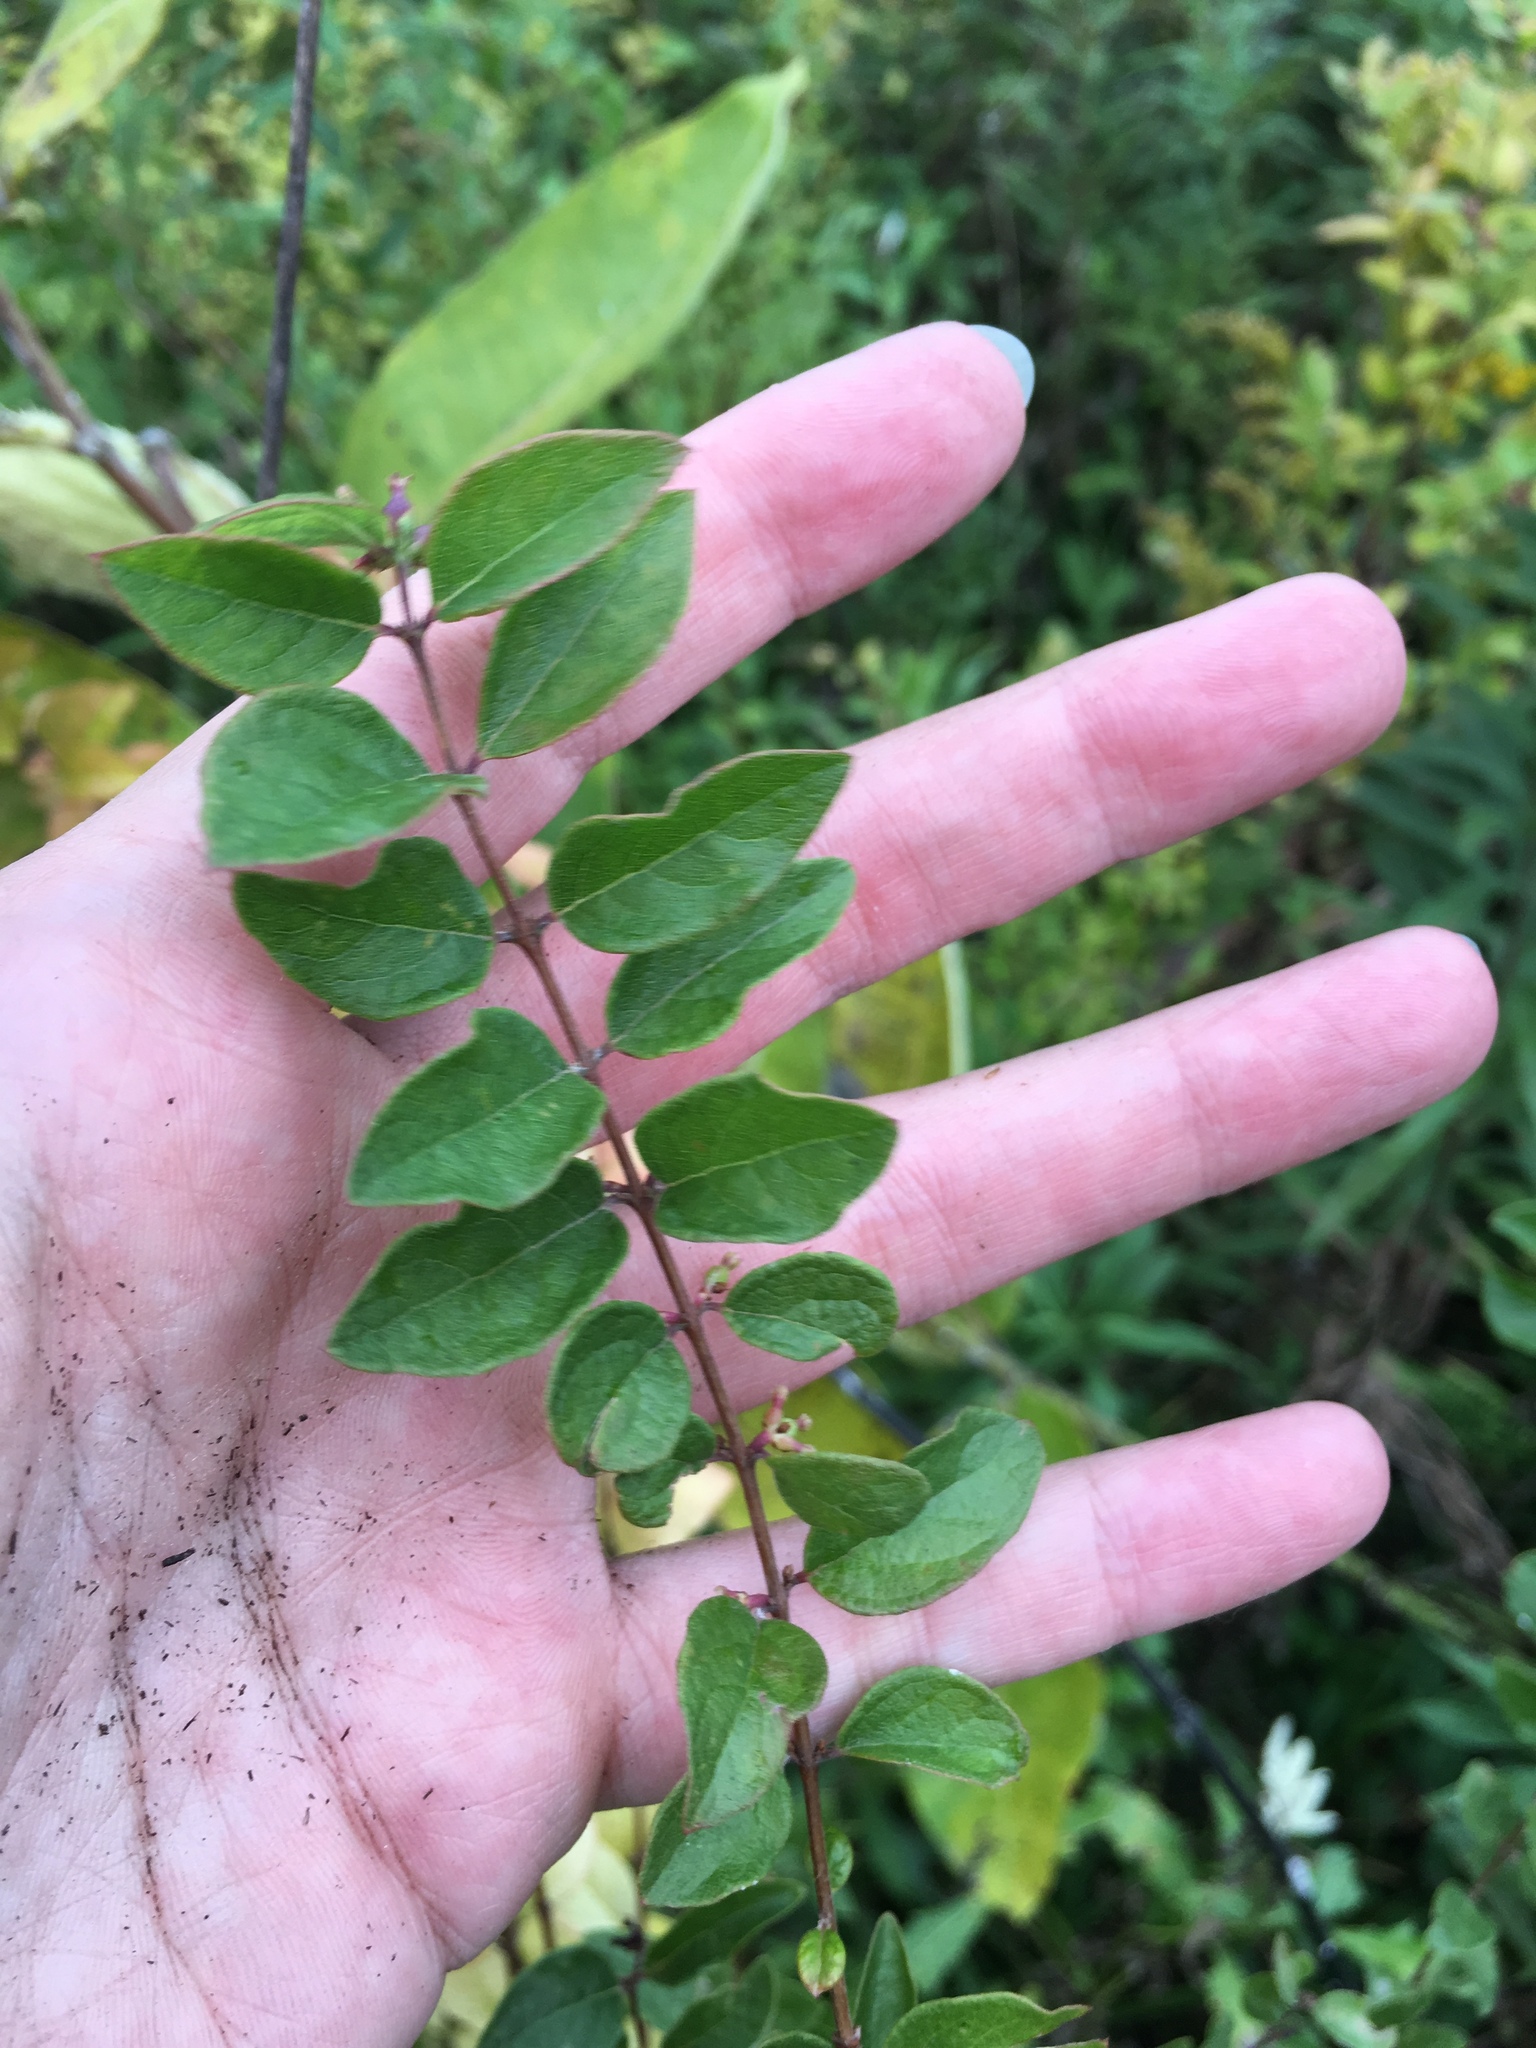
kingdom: Plantae
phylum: Tracheophyta
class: Magnoliopsida
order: Dipsacales
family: Caprifoliaceae
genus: Symphoricarpos
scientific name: Symphoricarpos orbiculatus
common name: Coralberry
